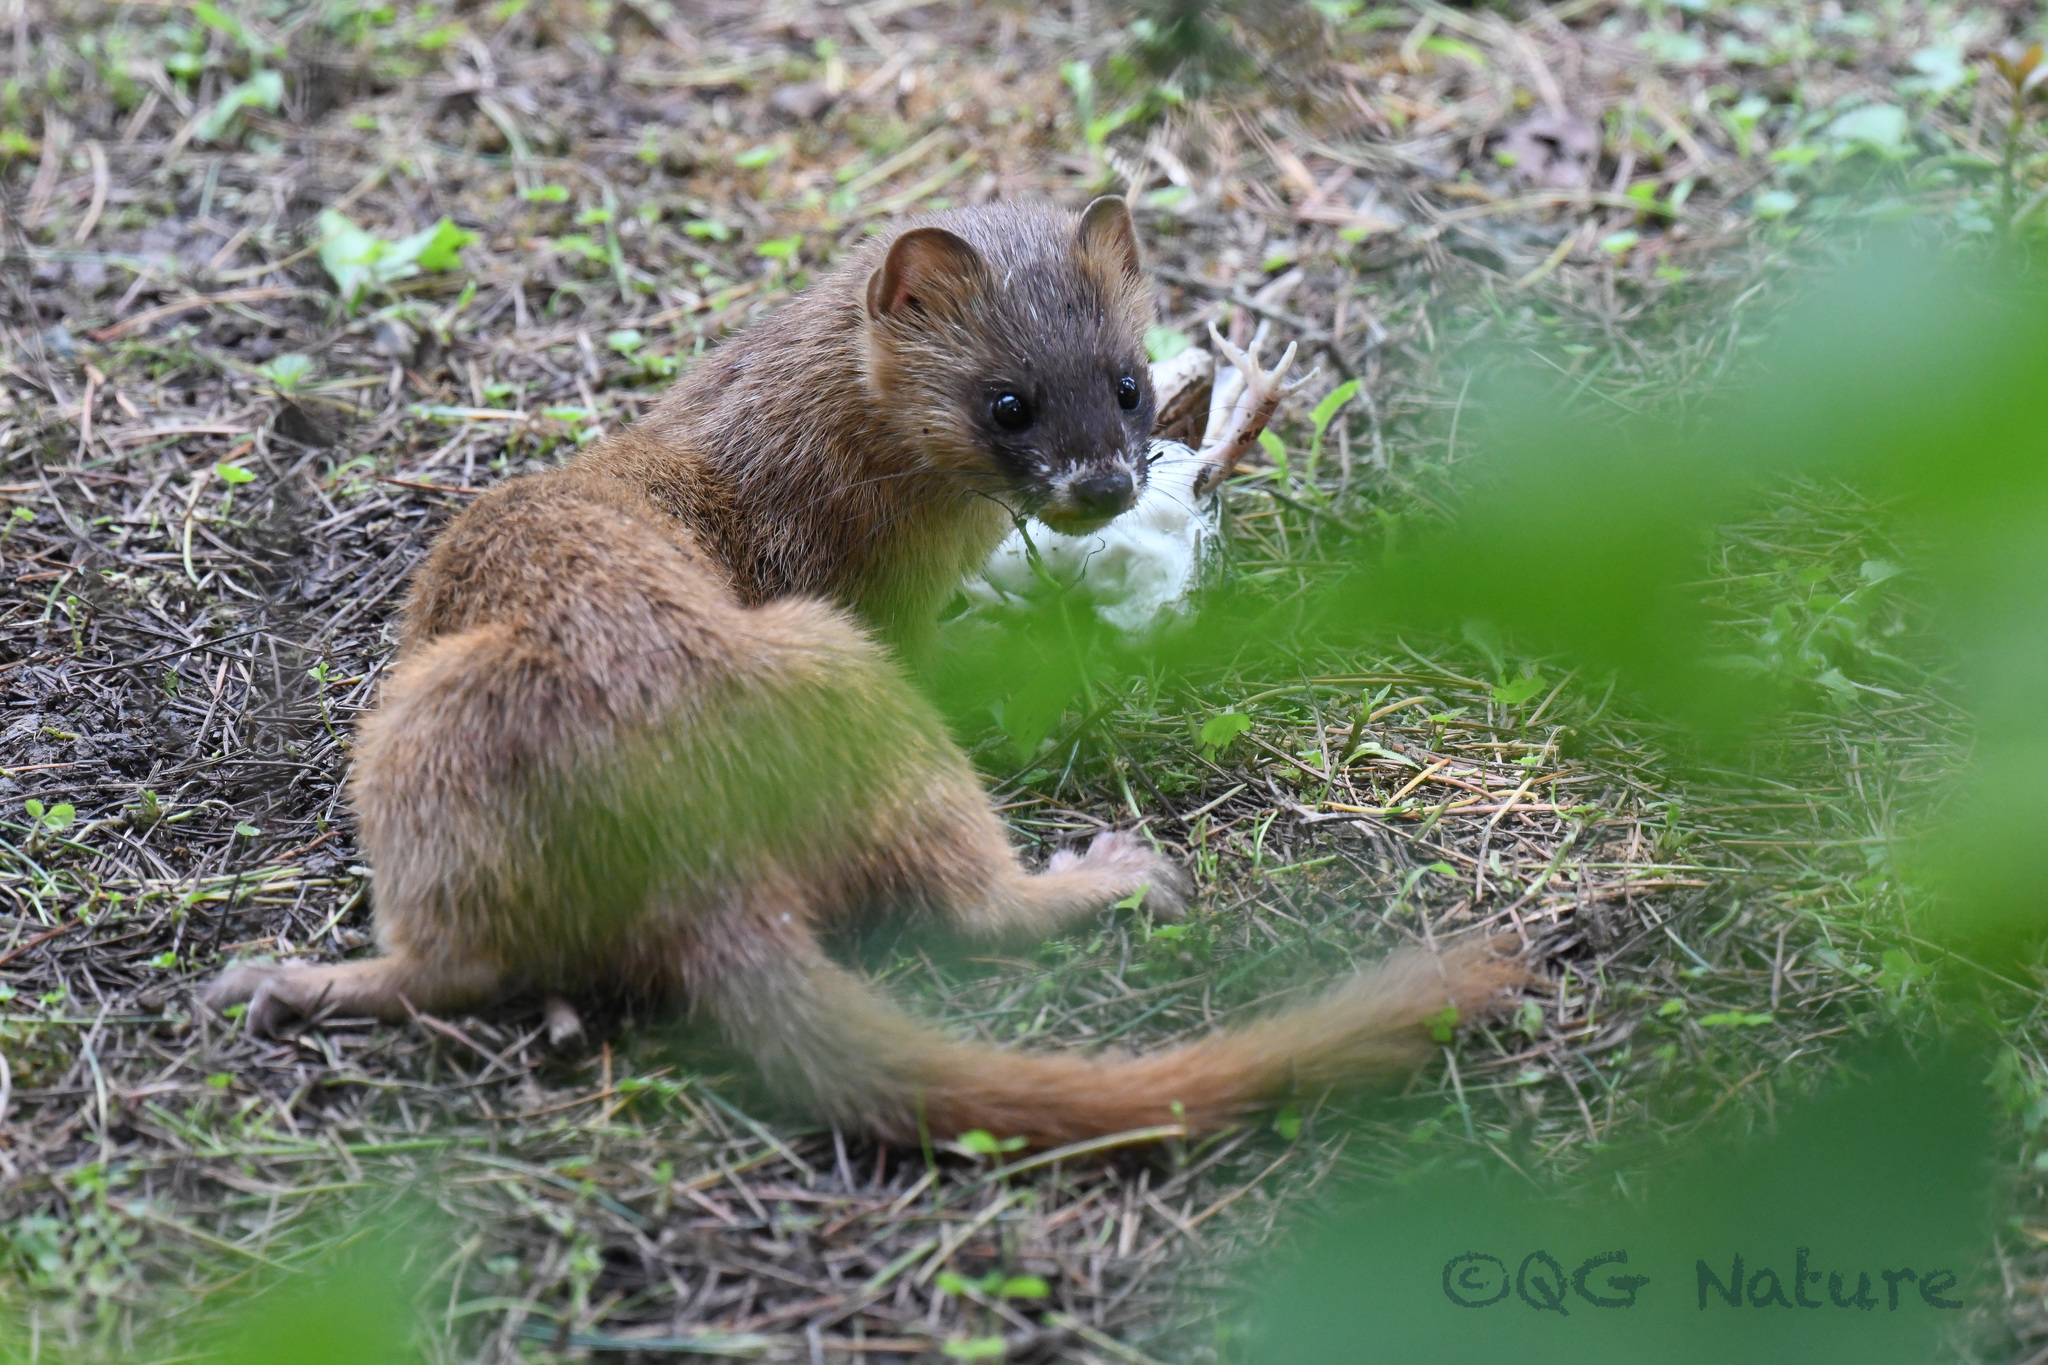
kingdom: Animalia
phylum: Chordata
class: Mammalia
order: Carnivora
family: Mustelidae
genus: Mustela
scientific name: Mustela sibirica
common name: Siberian weasel
